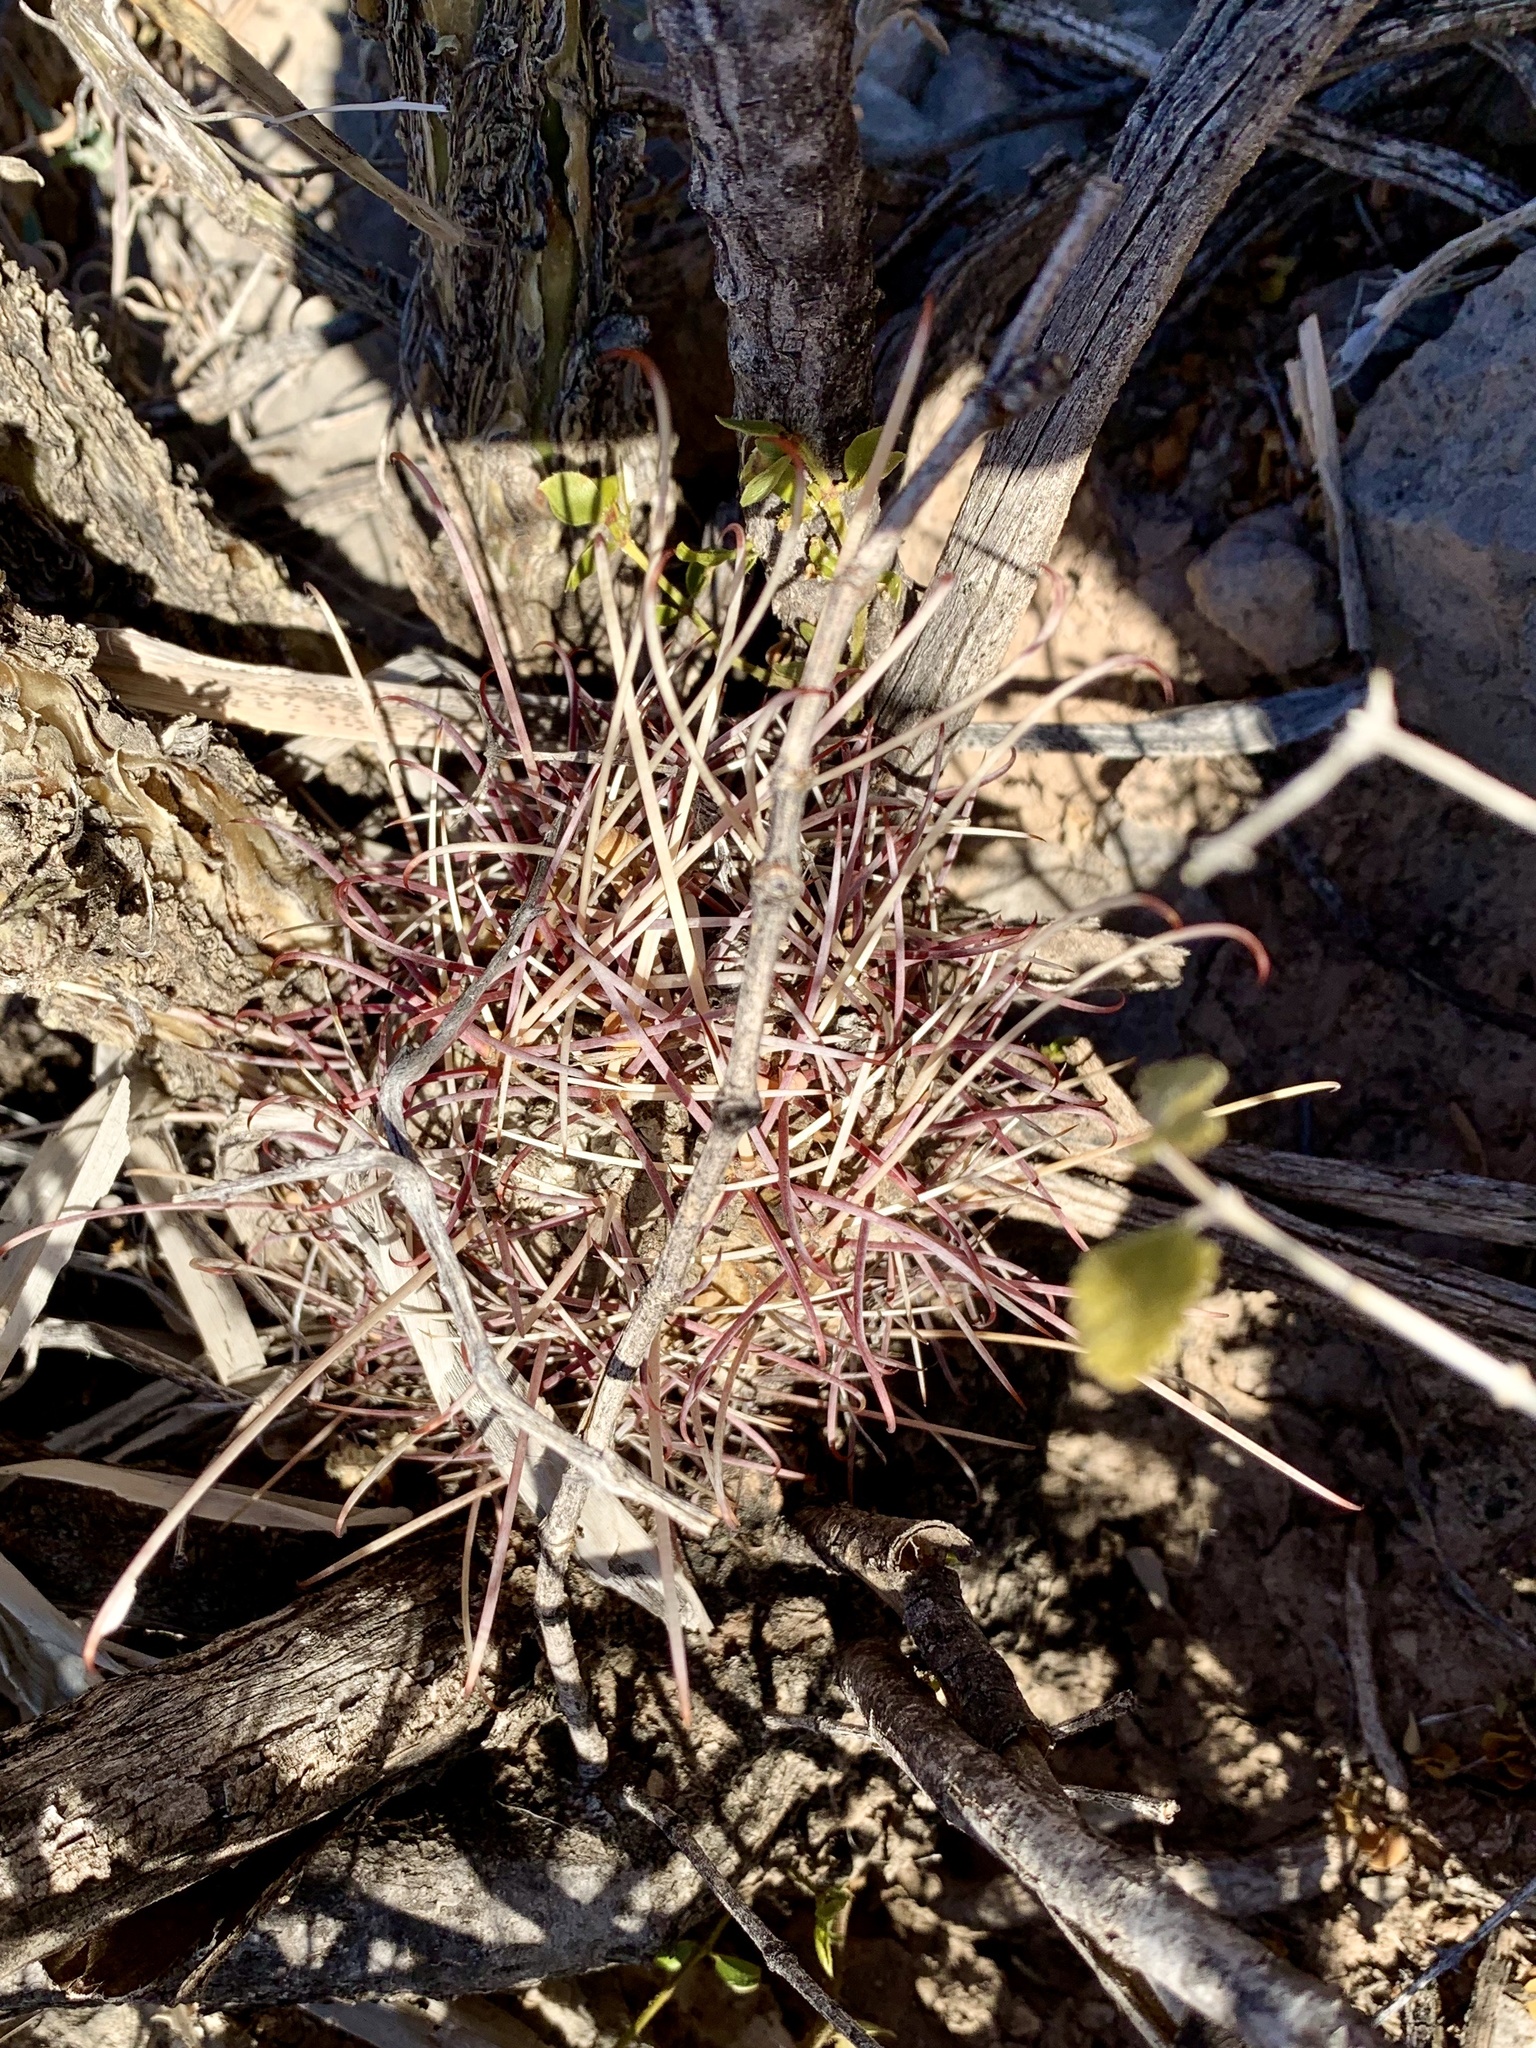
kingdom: Plantae
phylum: Tracheophyta
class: Magnoliopsida
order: Caryophyllales
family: Cactaceae
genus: Ferocactus
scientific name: Ferocactus uncinatus
